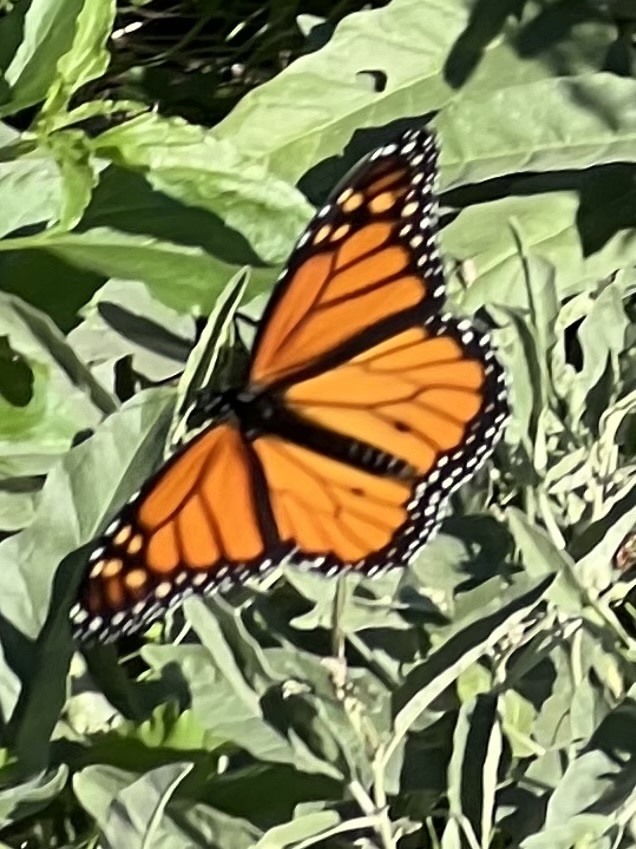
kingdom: Animalia
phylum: Arthropoda
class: Insecta
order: Lepidoptera
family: Nymphalidae
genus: Danaus
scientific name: Danaus plexippus
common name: Monarch
